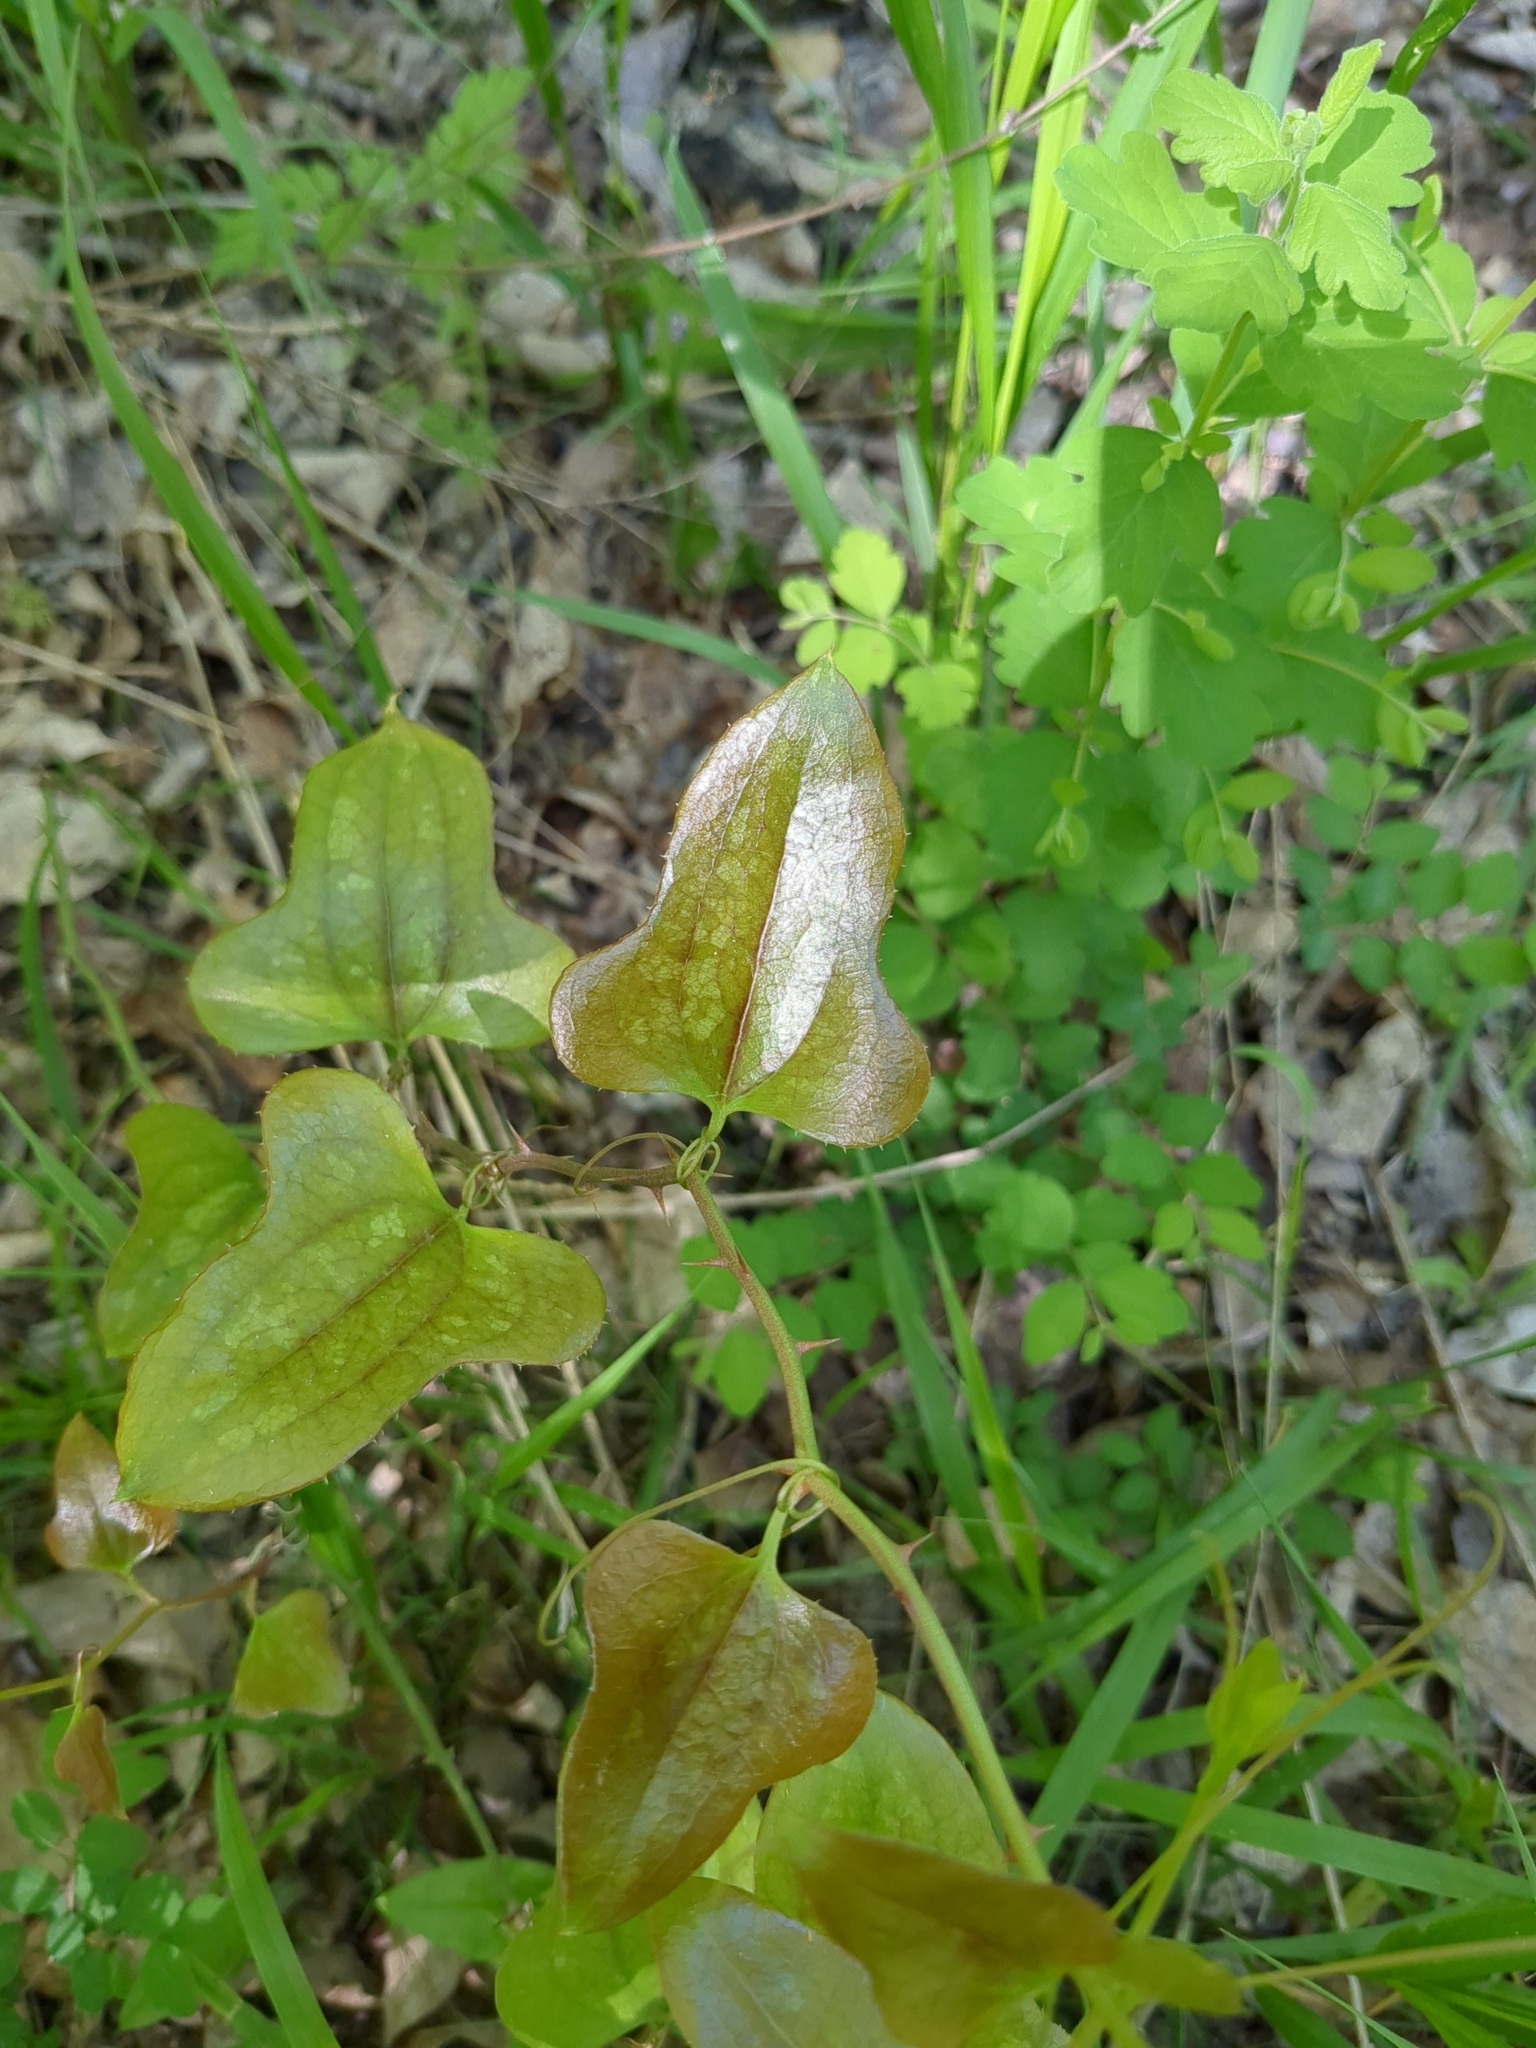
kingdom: Plantae
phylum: Tracheophyta
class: Liliopsida
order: Liliales
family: Smilacaceae
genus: Smilax
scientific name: Smilax bona-nox
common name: Catbrier
